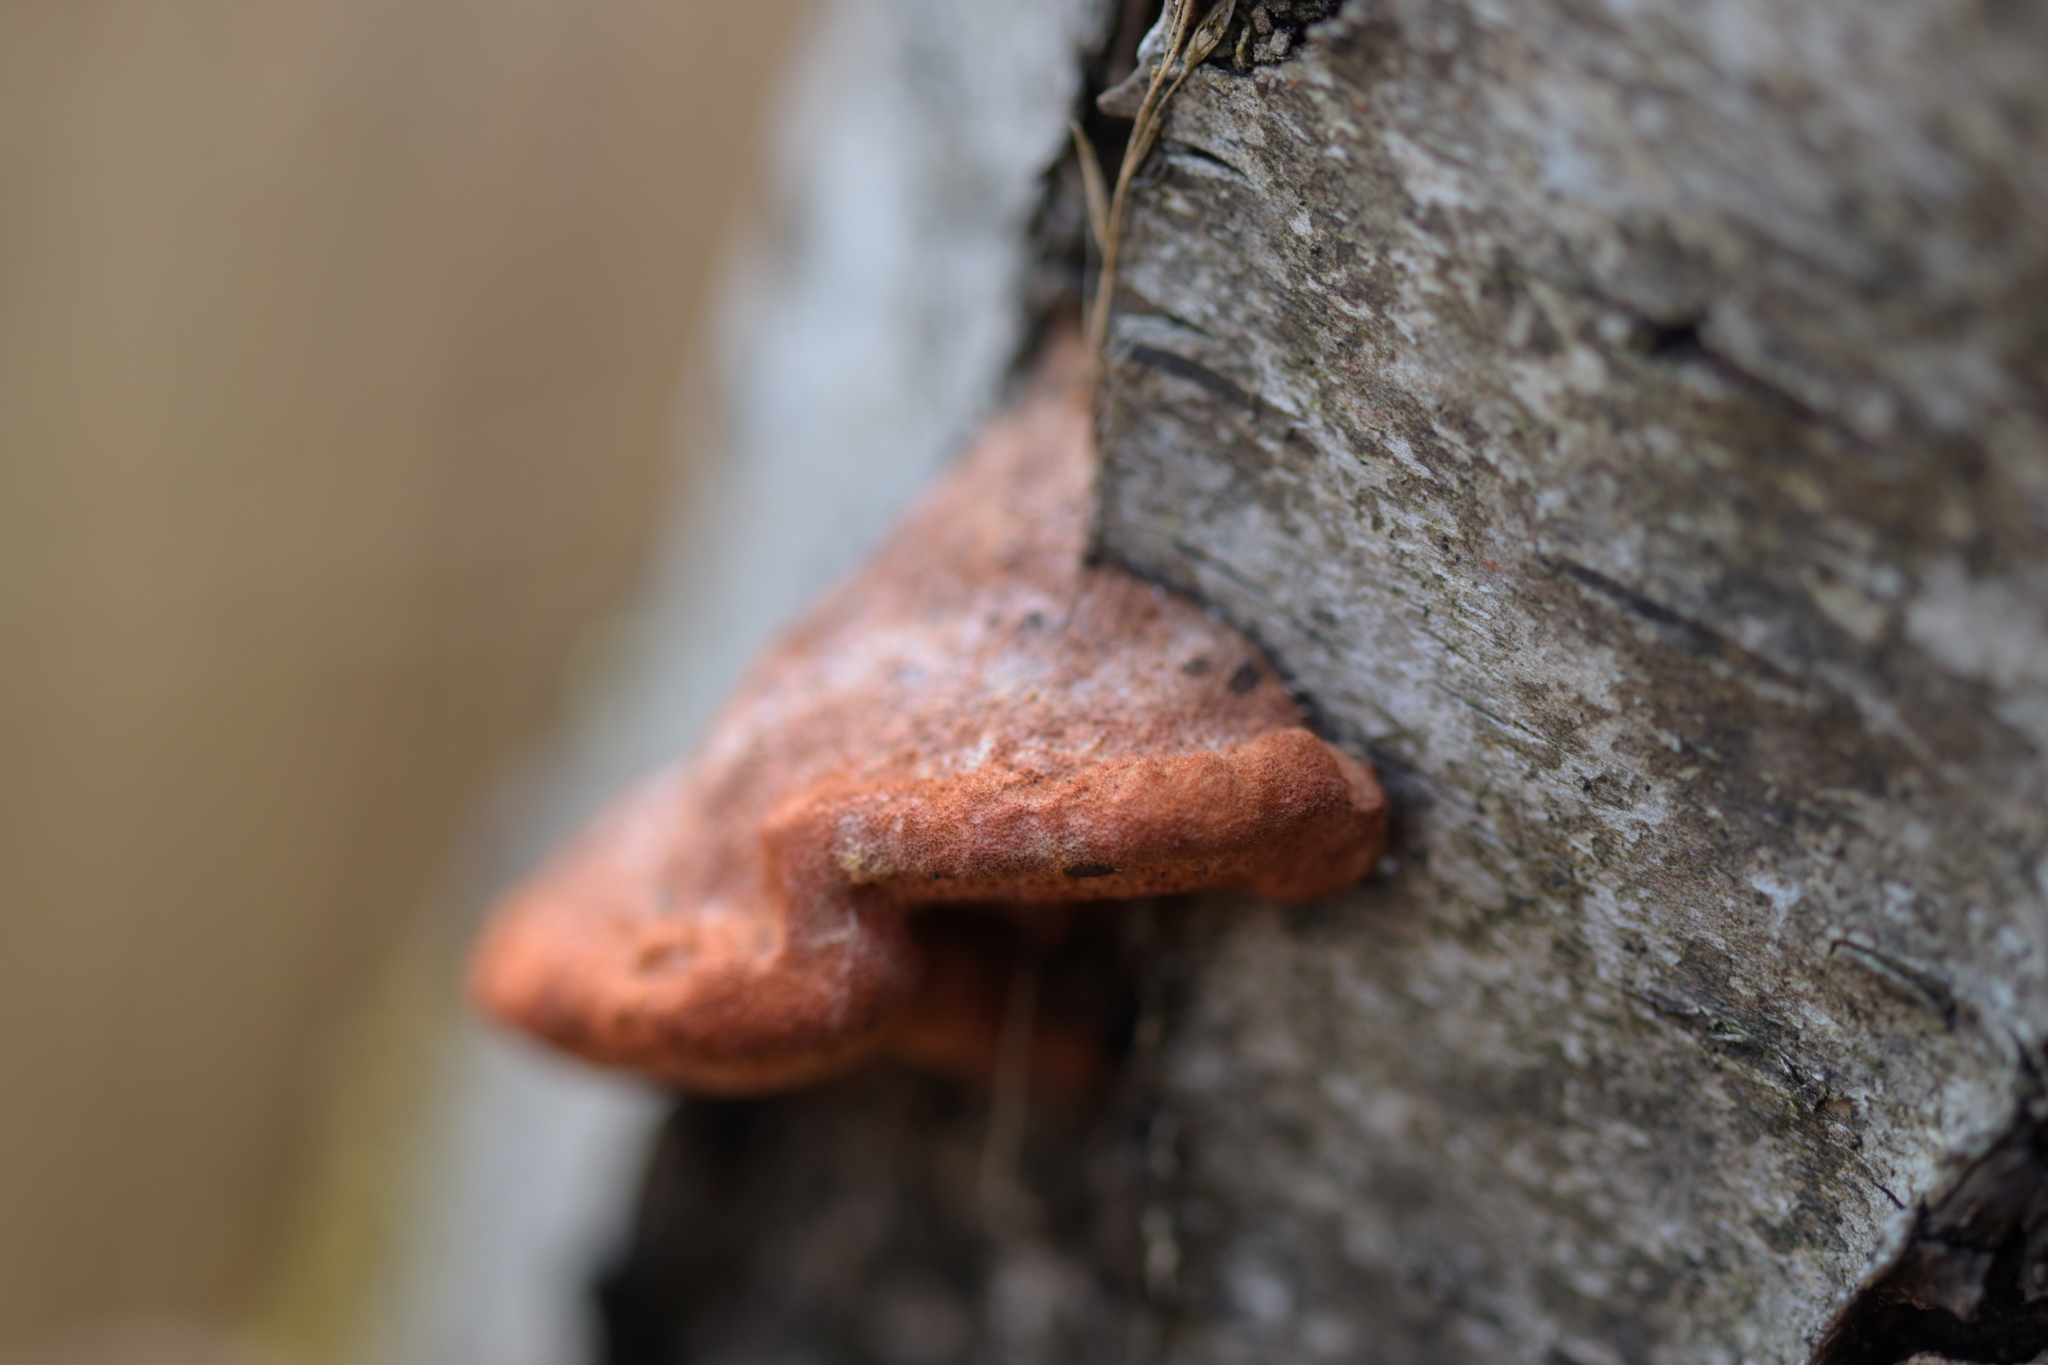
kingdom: Fungi
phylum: Basidiomycota
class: Agaricomycetes
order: Polyporales
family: Polyporaceae
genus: Trametes
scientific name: Trametes cinnabarina
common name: Northern cinnabar polypore
